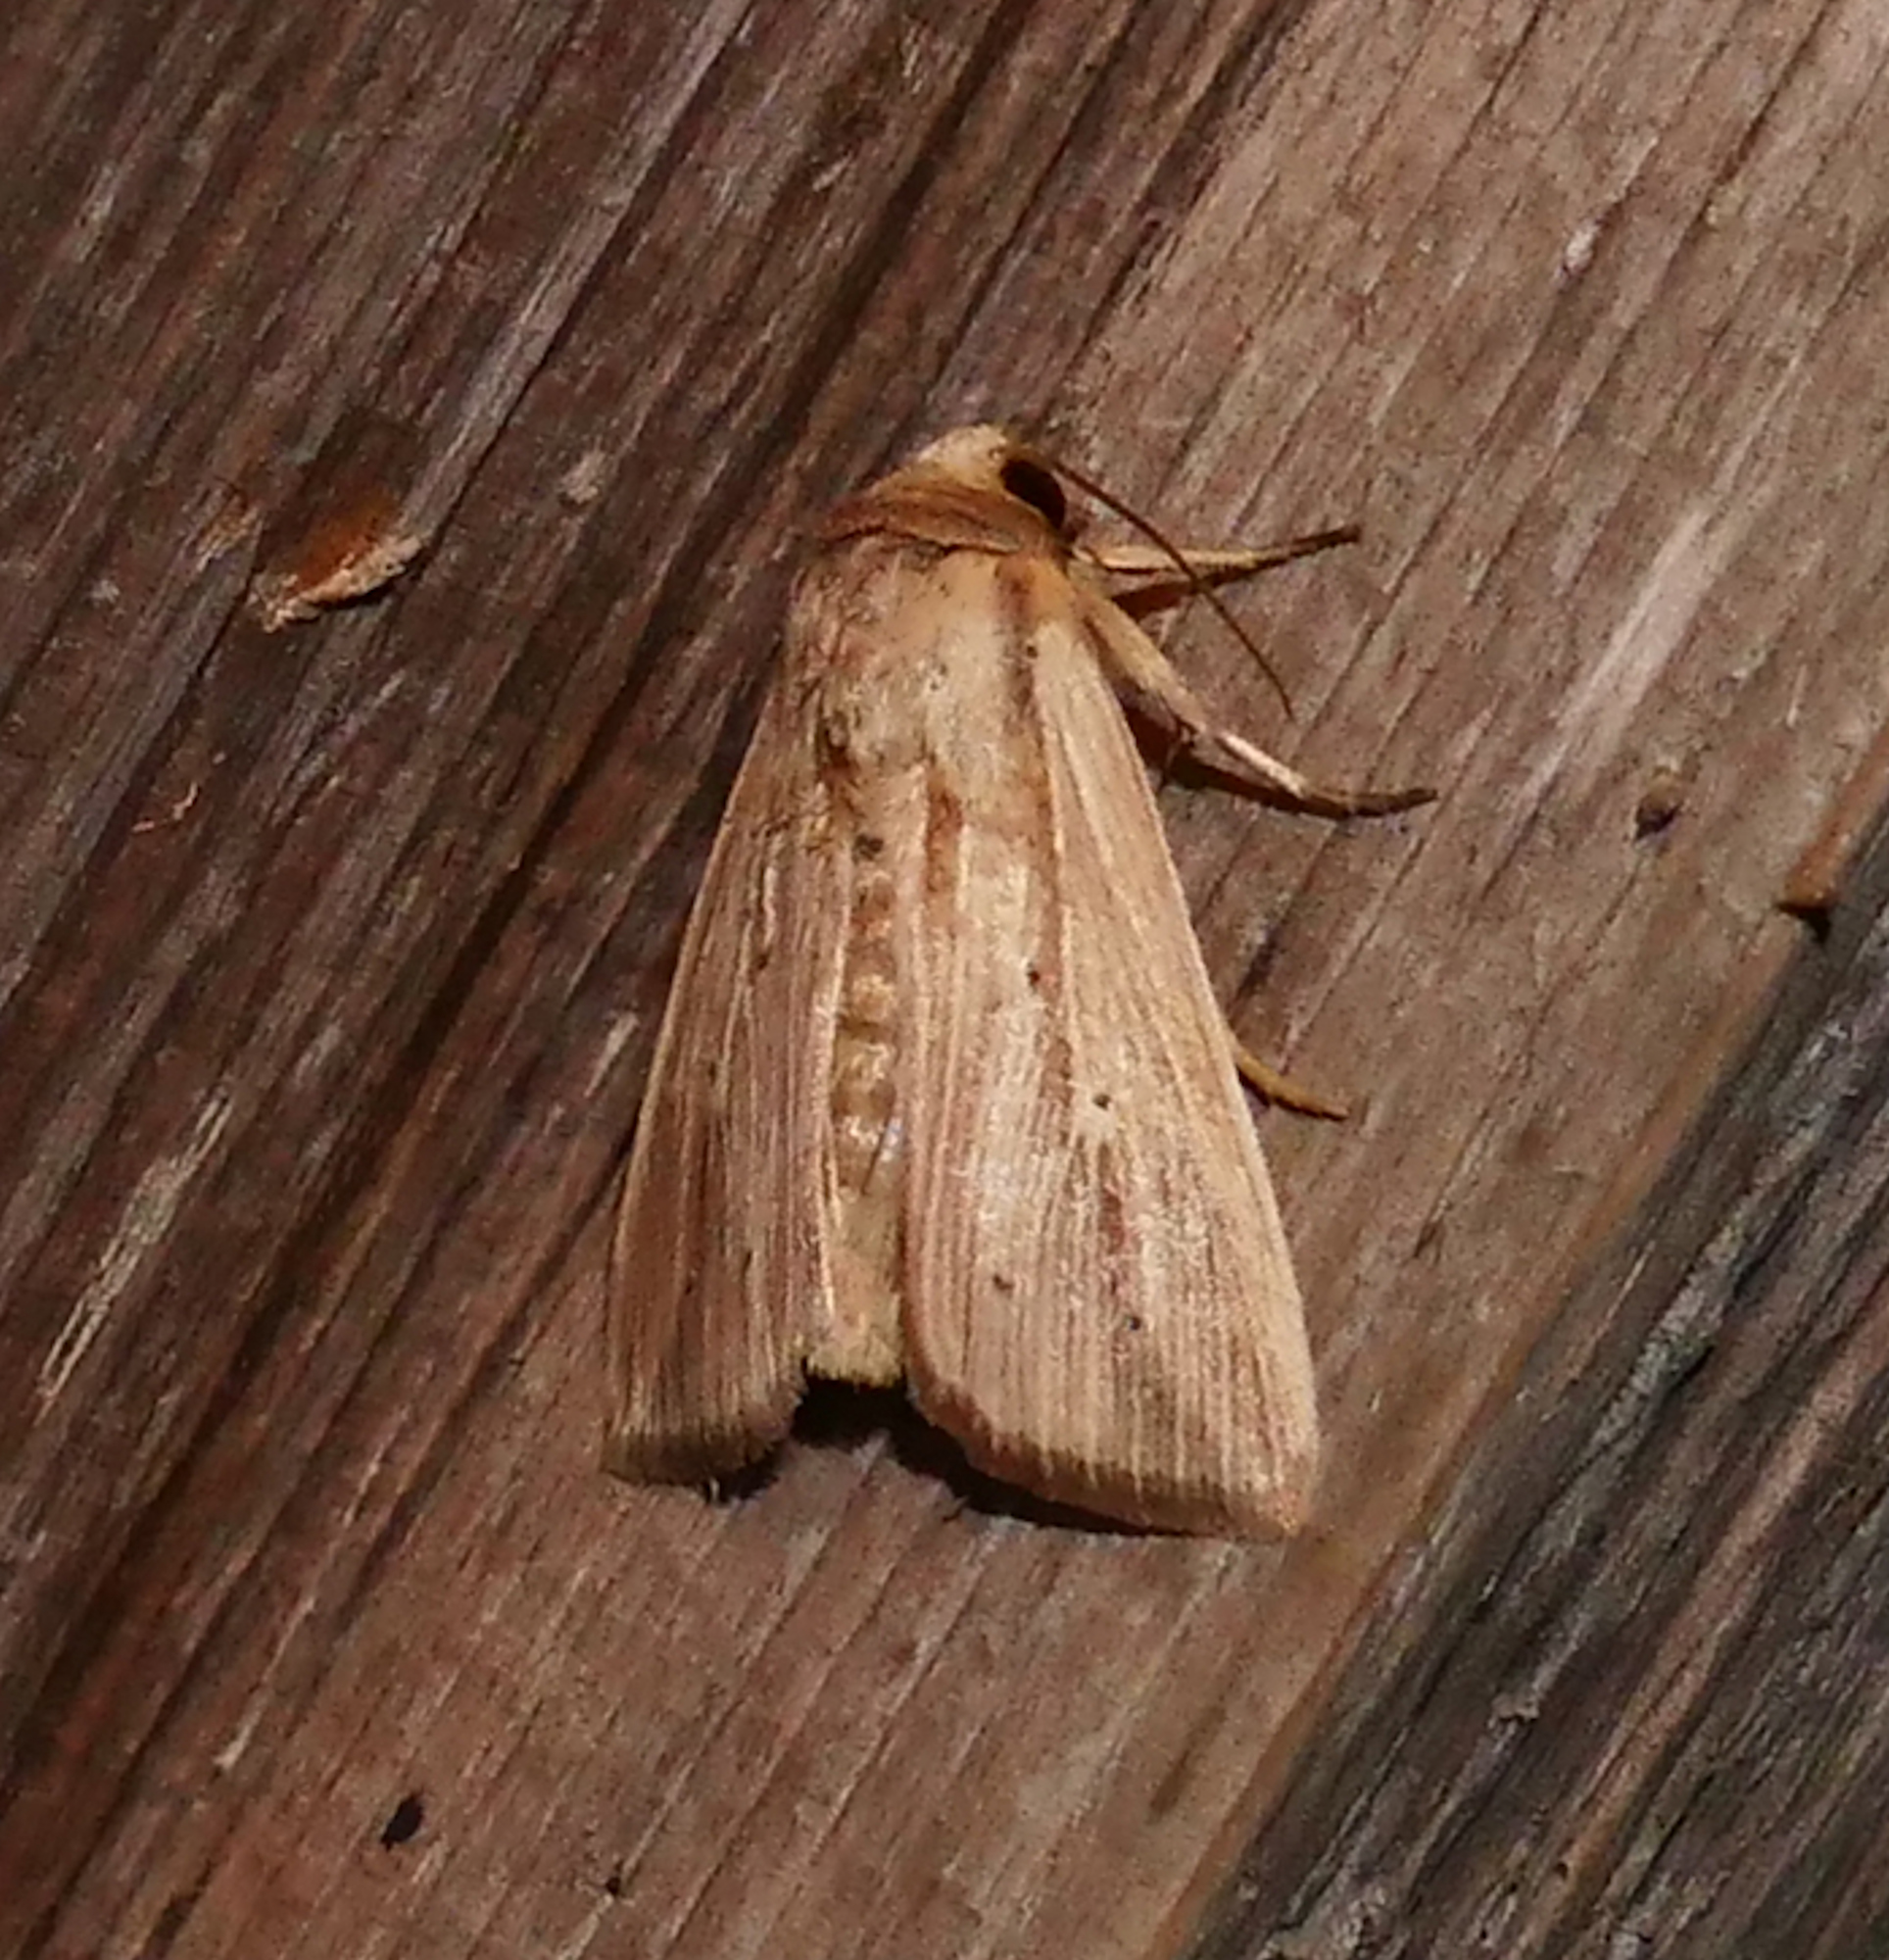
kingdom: Animalia
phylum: Arthropoda
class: Insecta
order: Lepidoptera
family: Noctuidae
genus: Leucania
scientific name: Leucania adjuta
